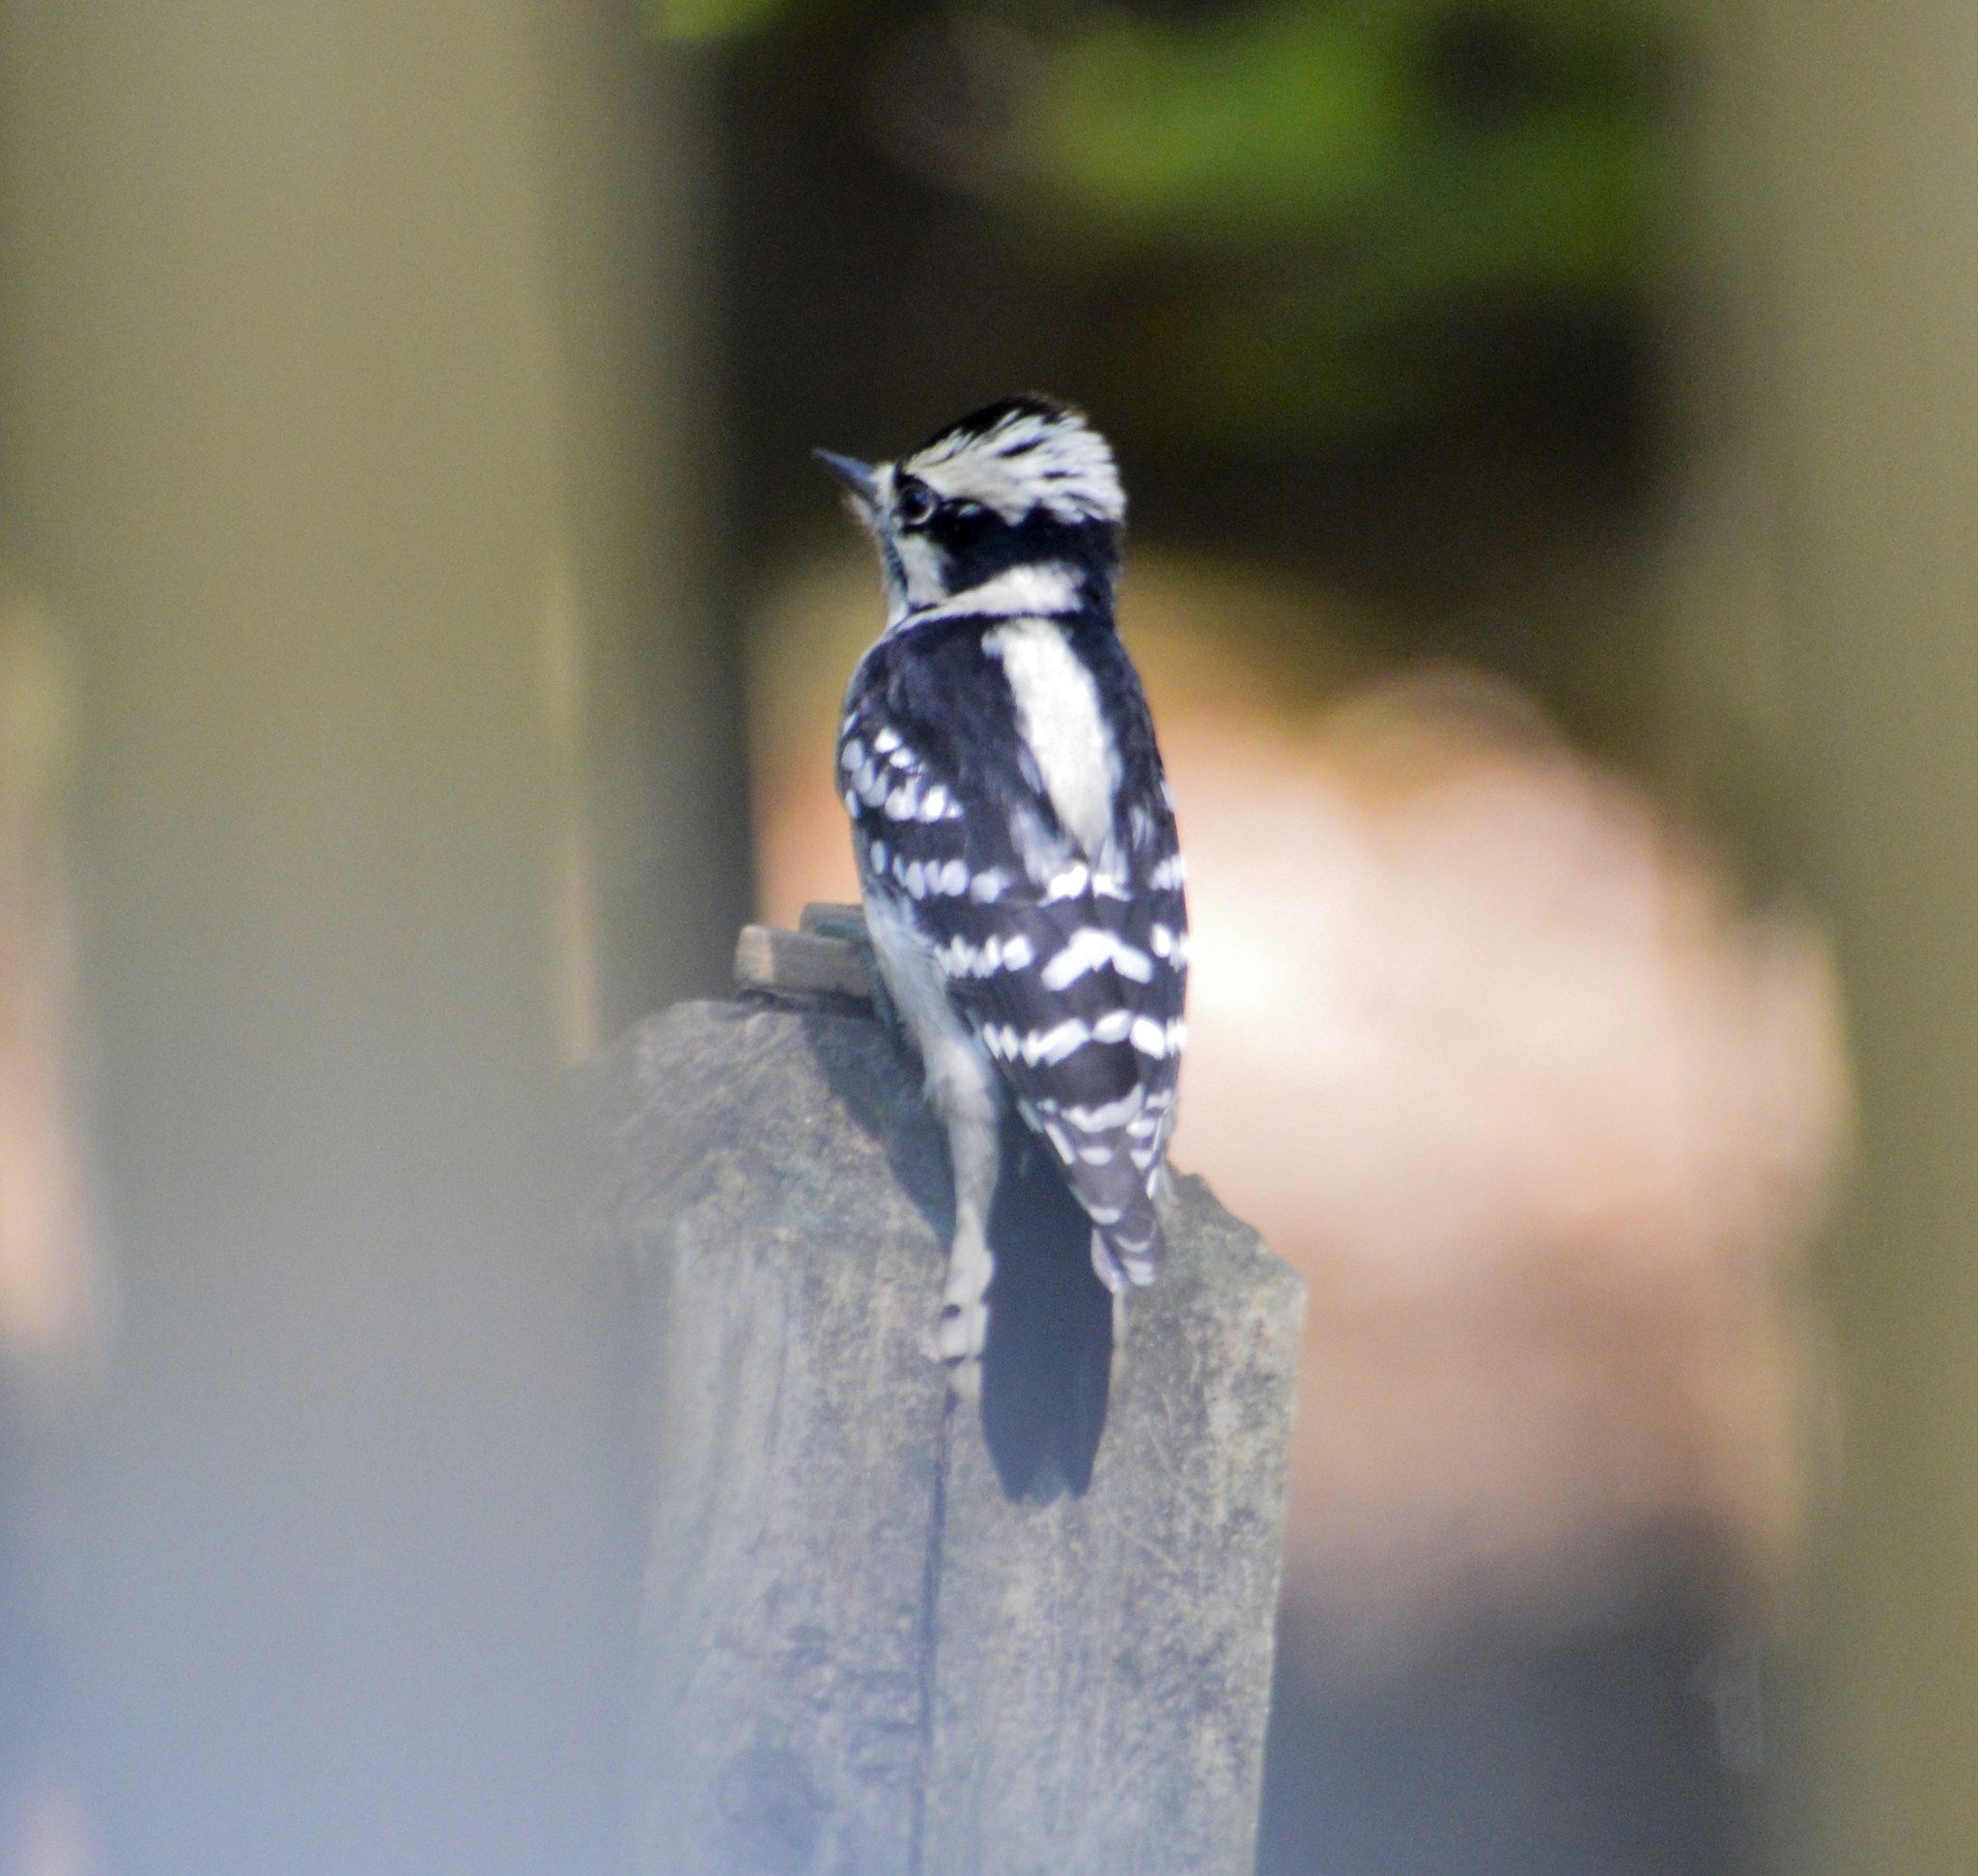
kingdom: Animalia
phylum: Chordata
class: Aves
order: Piciformes
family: Picidae
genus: Dryobates
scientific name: Dryobates pubescens
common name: Downy woodpecker
